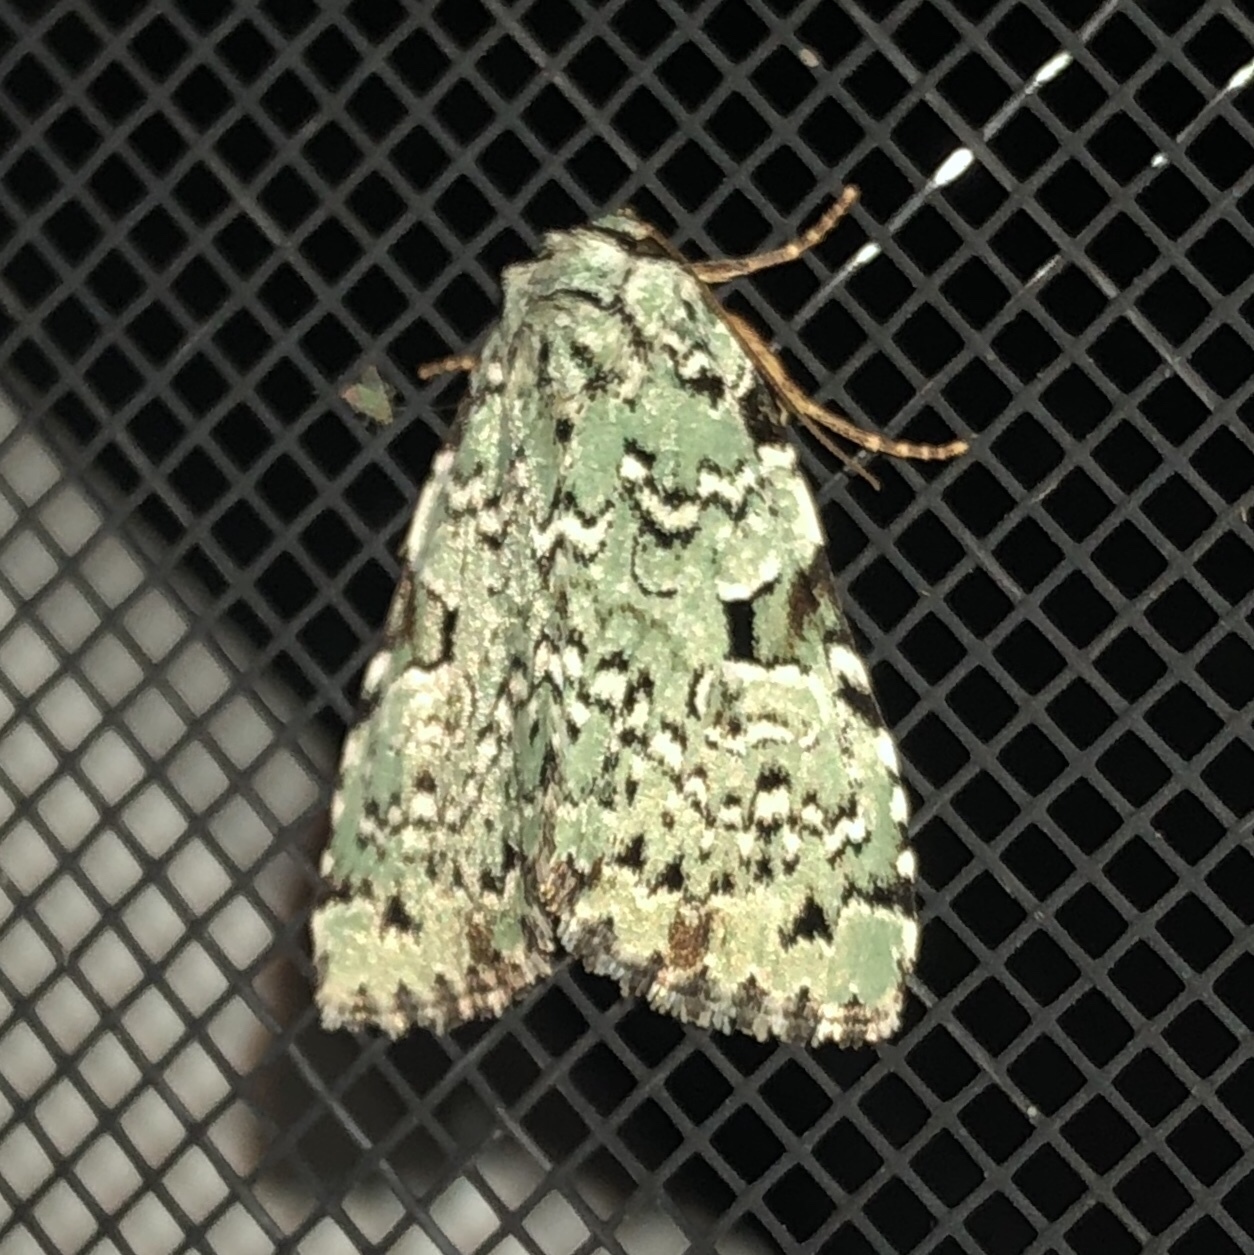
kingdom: Animalia
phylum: Arthropoda
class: Insecta
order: Lepidoptera
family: Noctuidae
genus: Leuconycta
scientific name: Leuconycta diphteroides
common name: Green leuconycta moth
